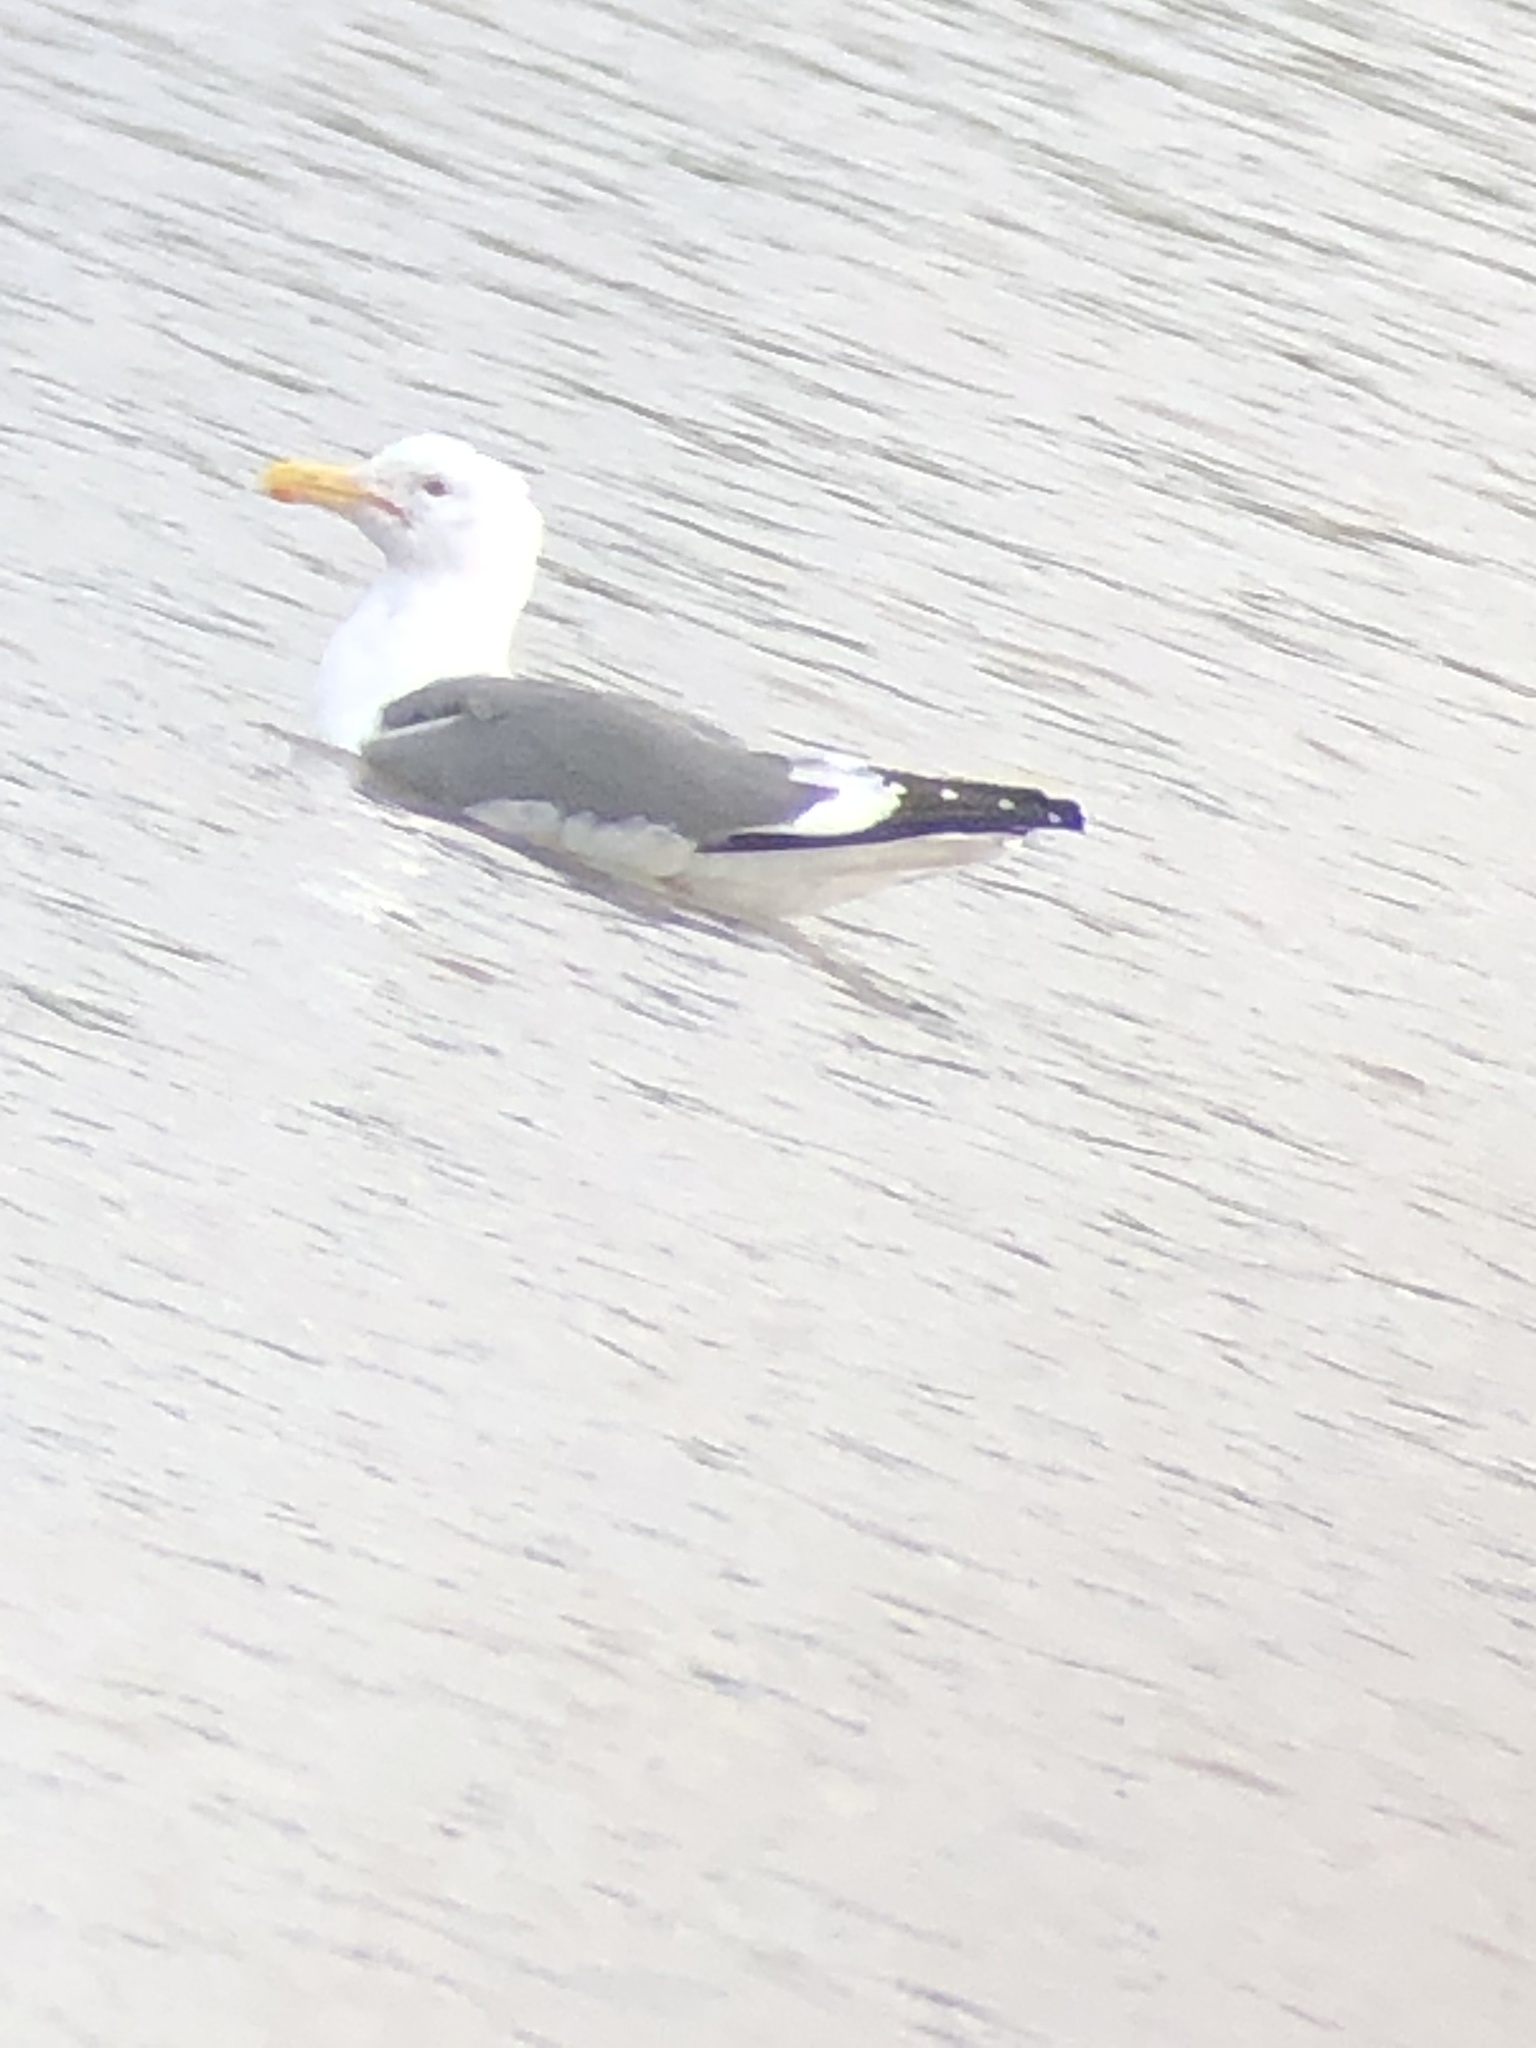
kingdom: Animalia
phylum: Chordata
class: Aves
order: Charadriiformes
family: Laridae
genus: Larus
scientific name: Larus occidentalis
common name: Western gull
